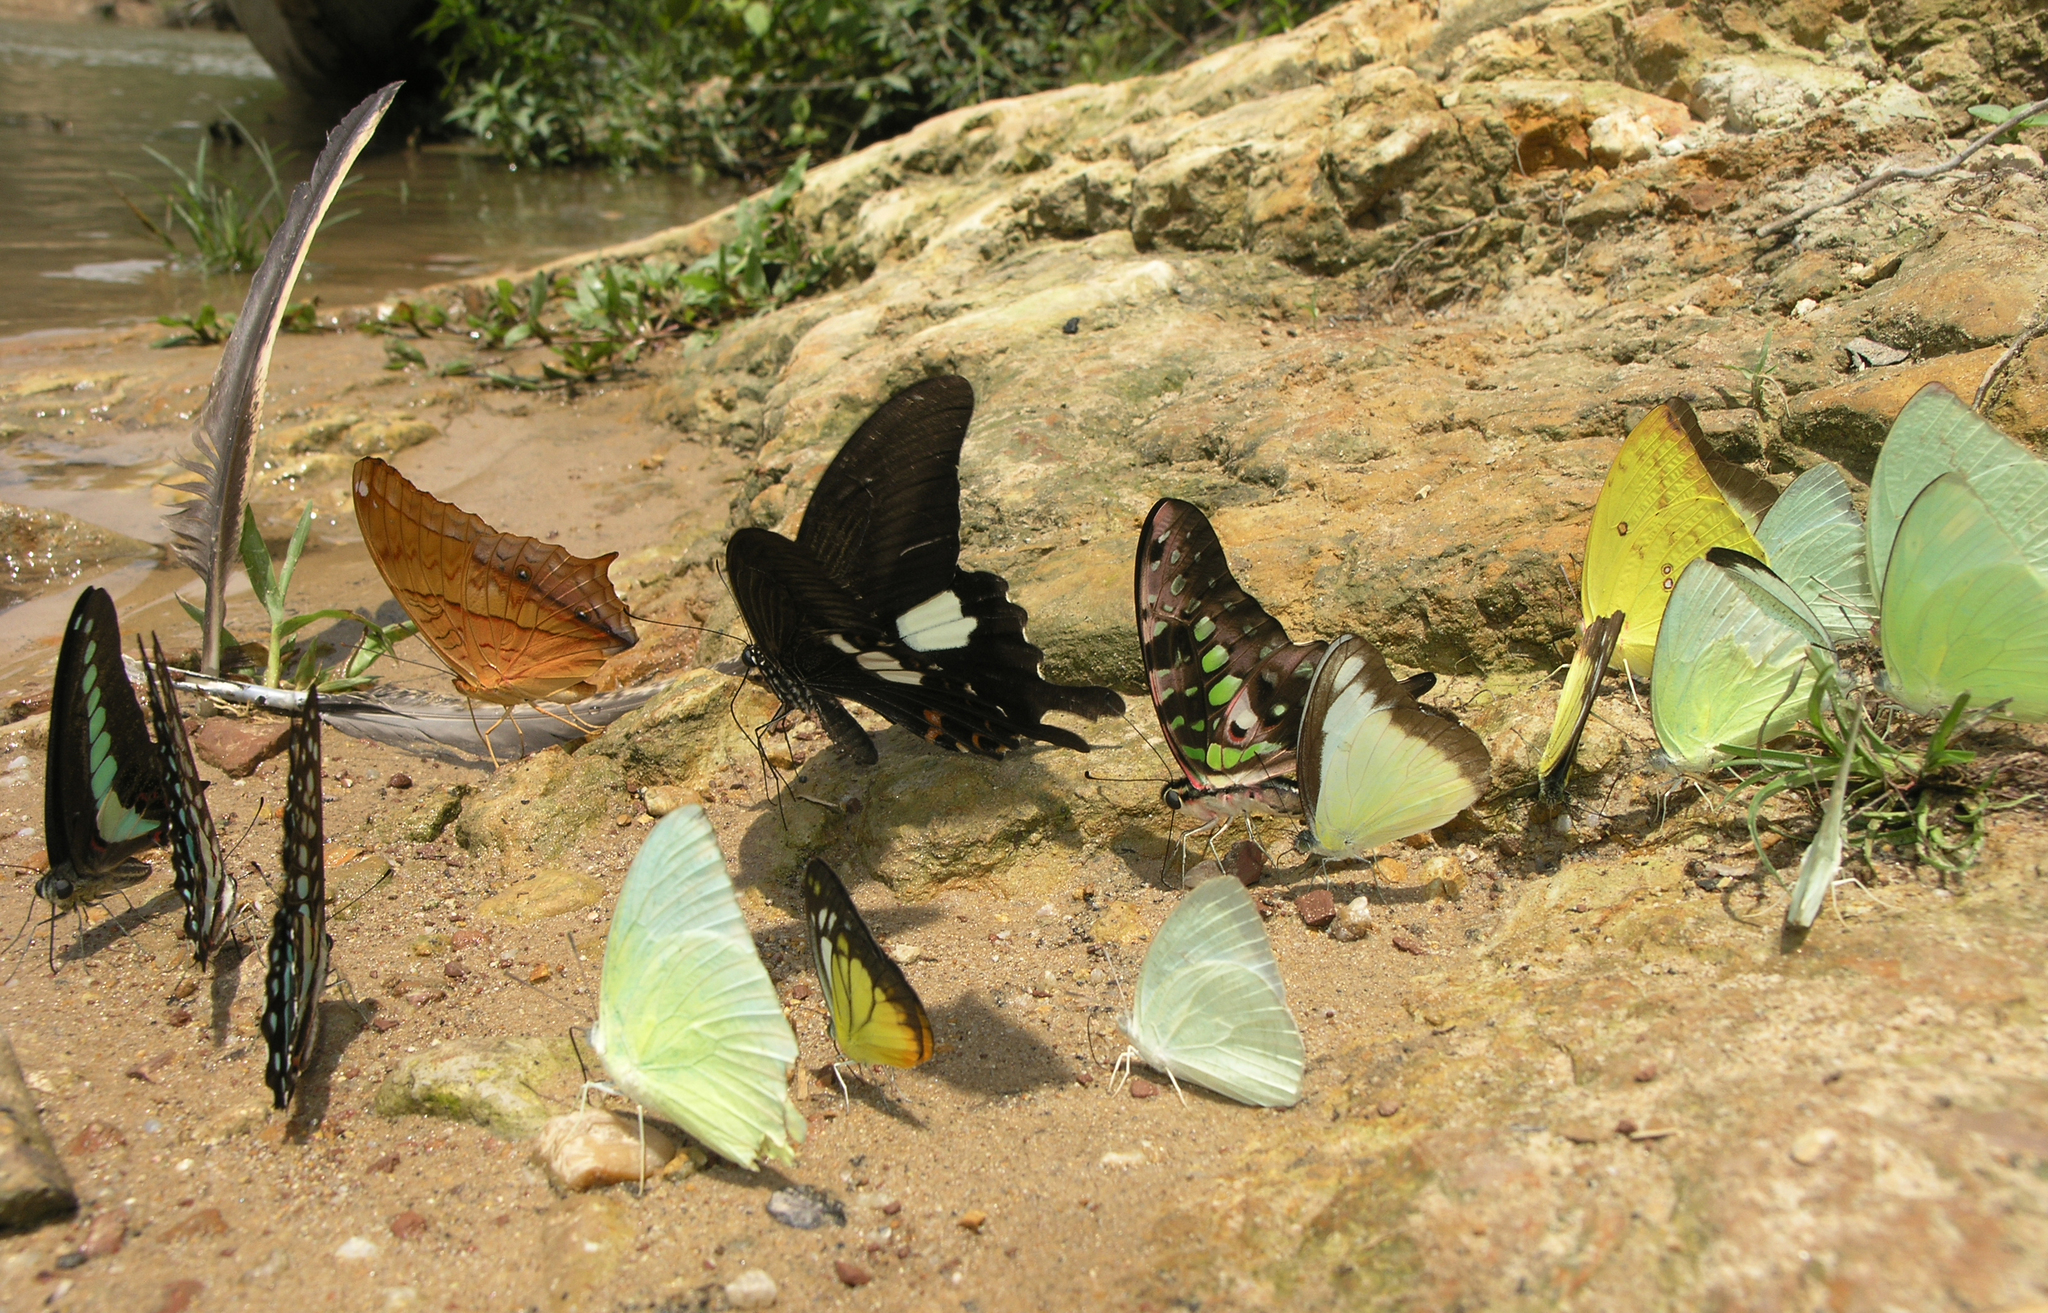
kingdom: Animalia
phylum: Arthropoda
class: Insecta
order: Lepidoptera
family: Pieridae
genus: Catopsilia
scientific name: Catopsilia pyranthe
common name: Mottled emigrant
